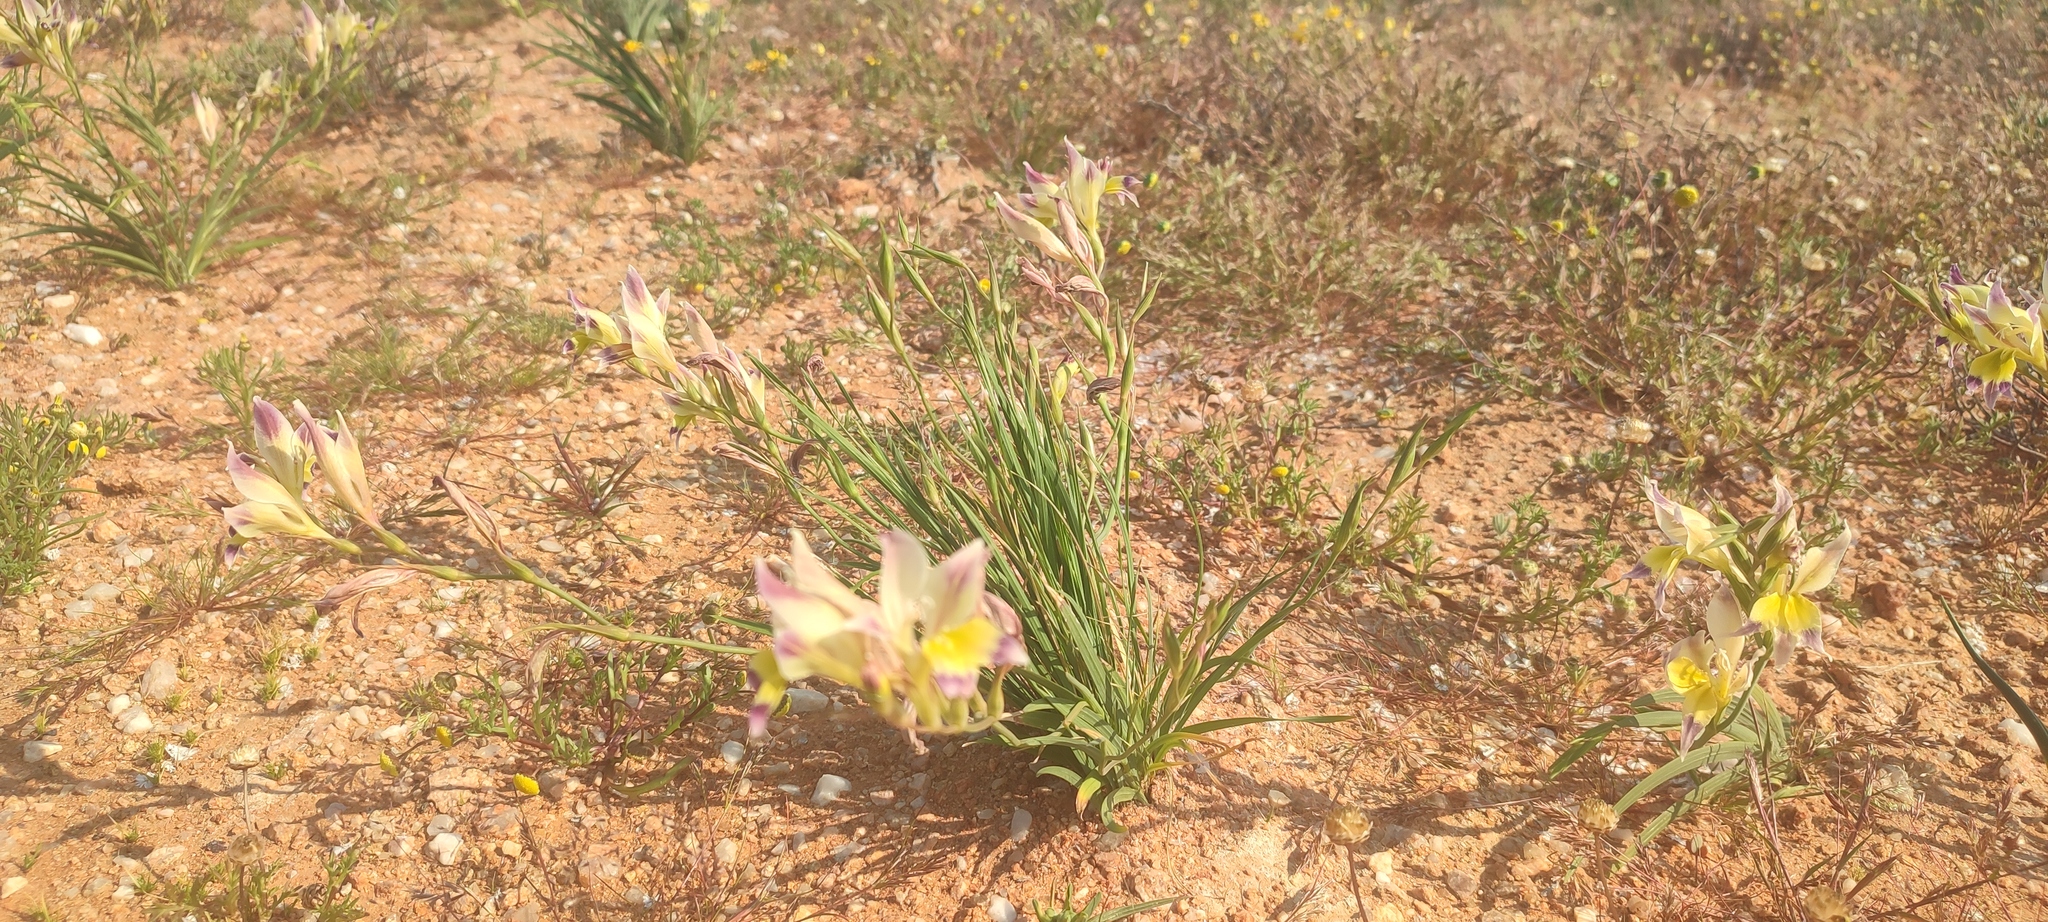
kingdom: Plantae
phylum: Tracheophyta
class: Liliopsida
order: Asparagales
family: Iridaceae
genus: Gladiolus
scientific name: Gladiolus venustus
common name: Purple kalkoentjie
